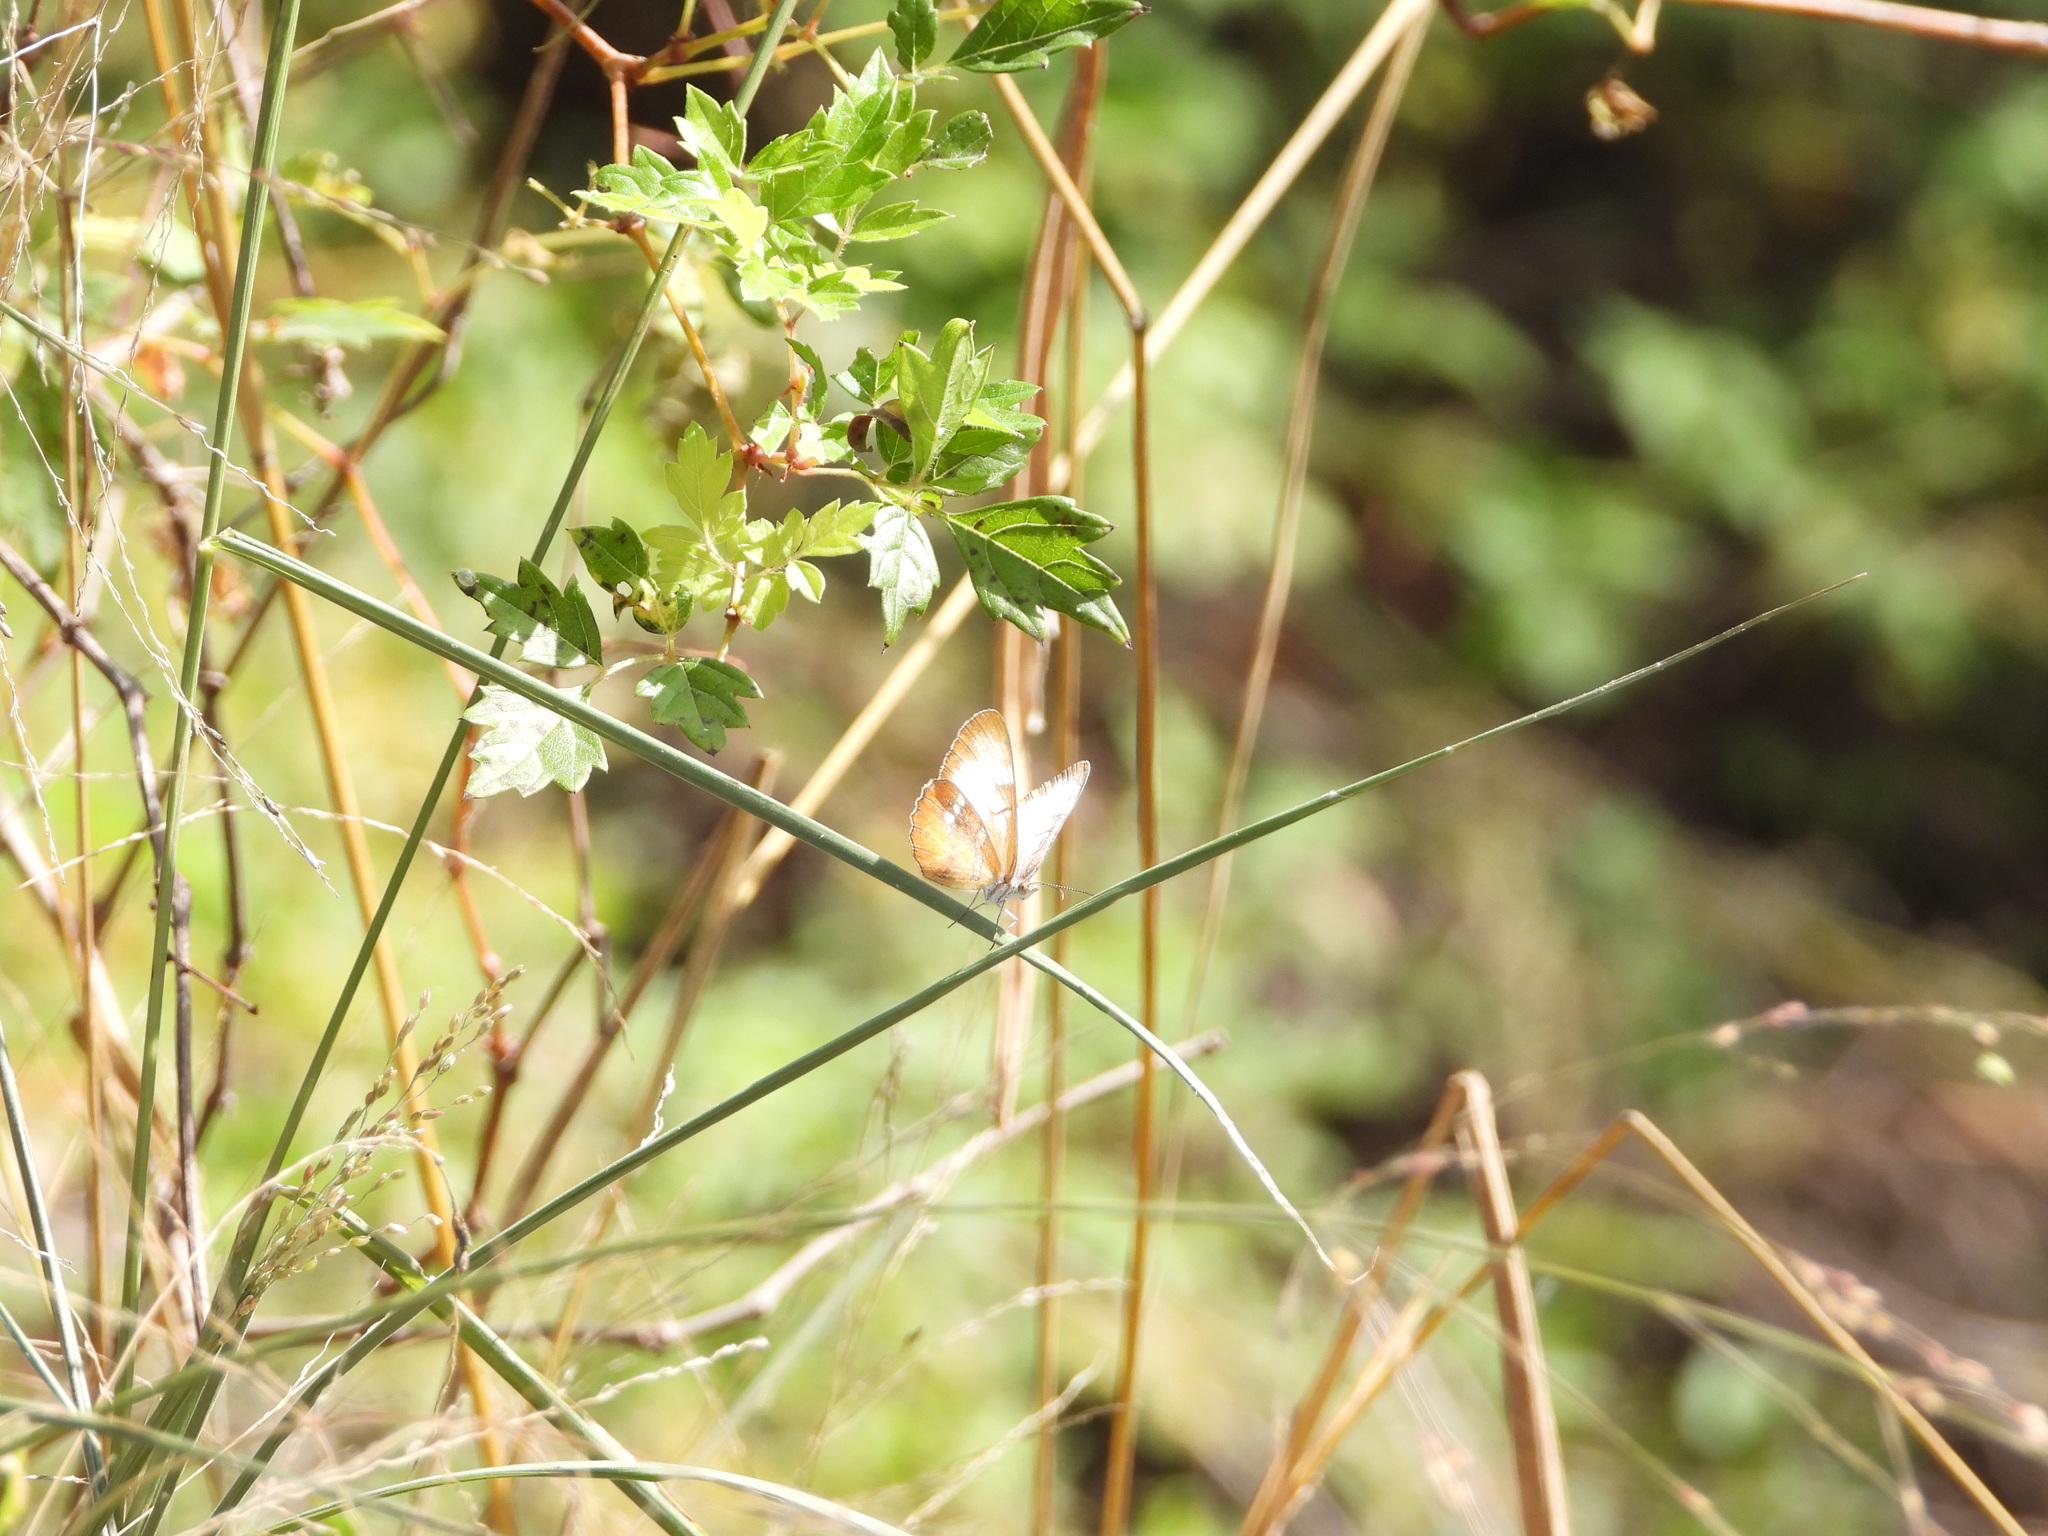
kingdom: Animalia
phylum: Arthropoda
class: Insecta
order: Lepidoptera
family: Nymphalidae
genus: Mestra
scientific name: Mestra amymone
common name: Common mestra
